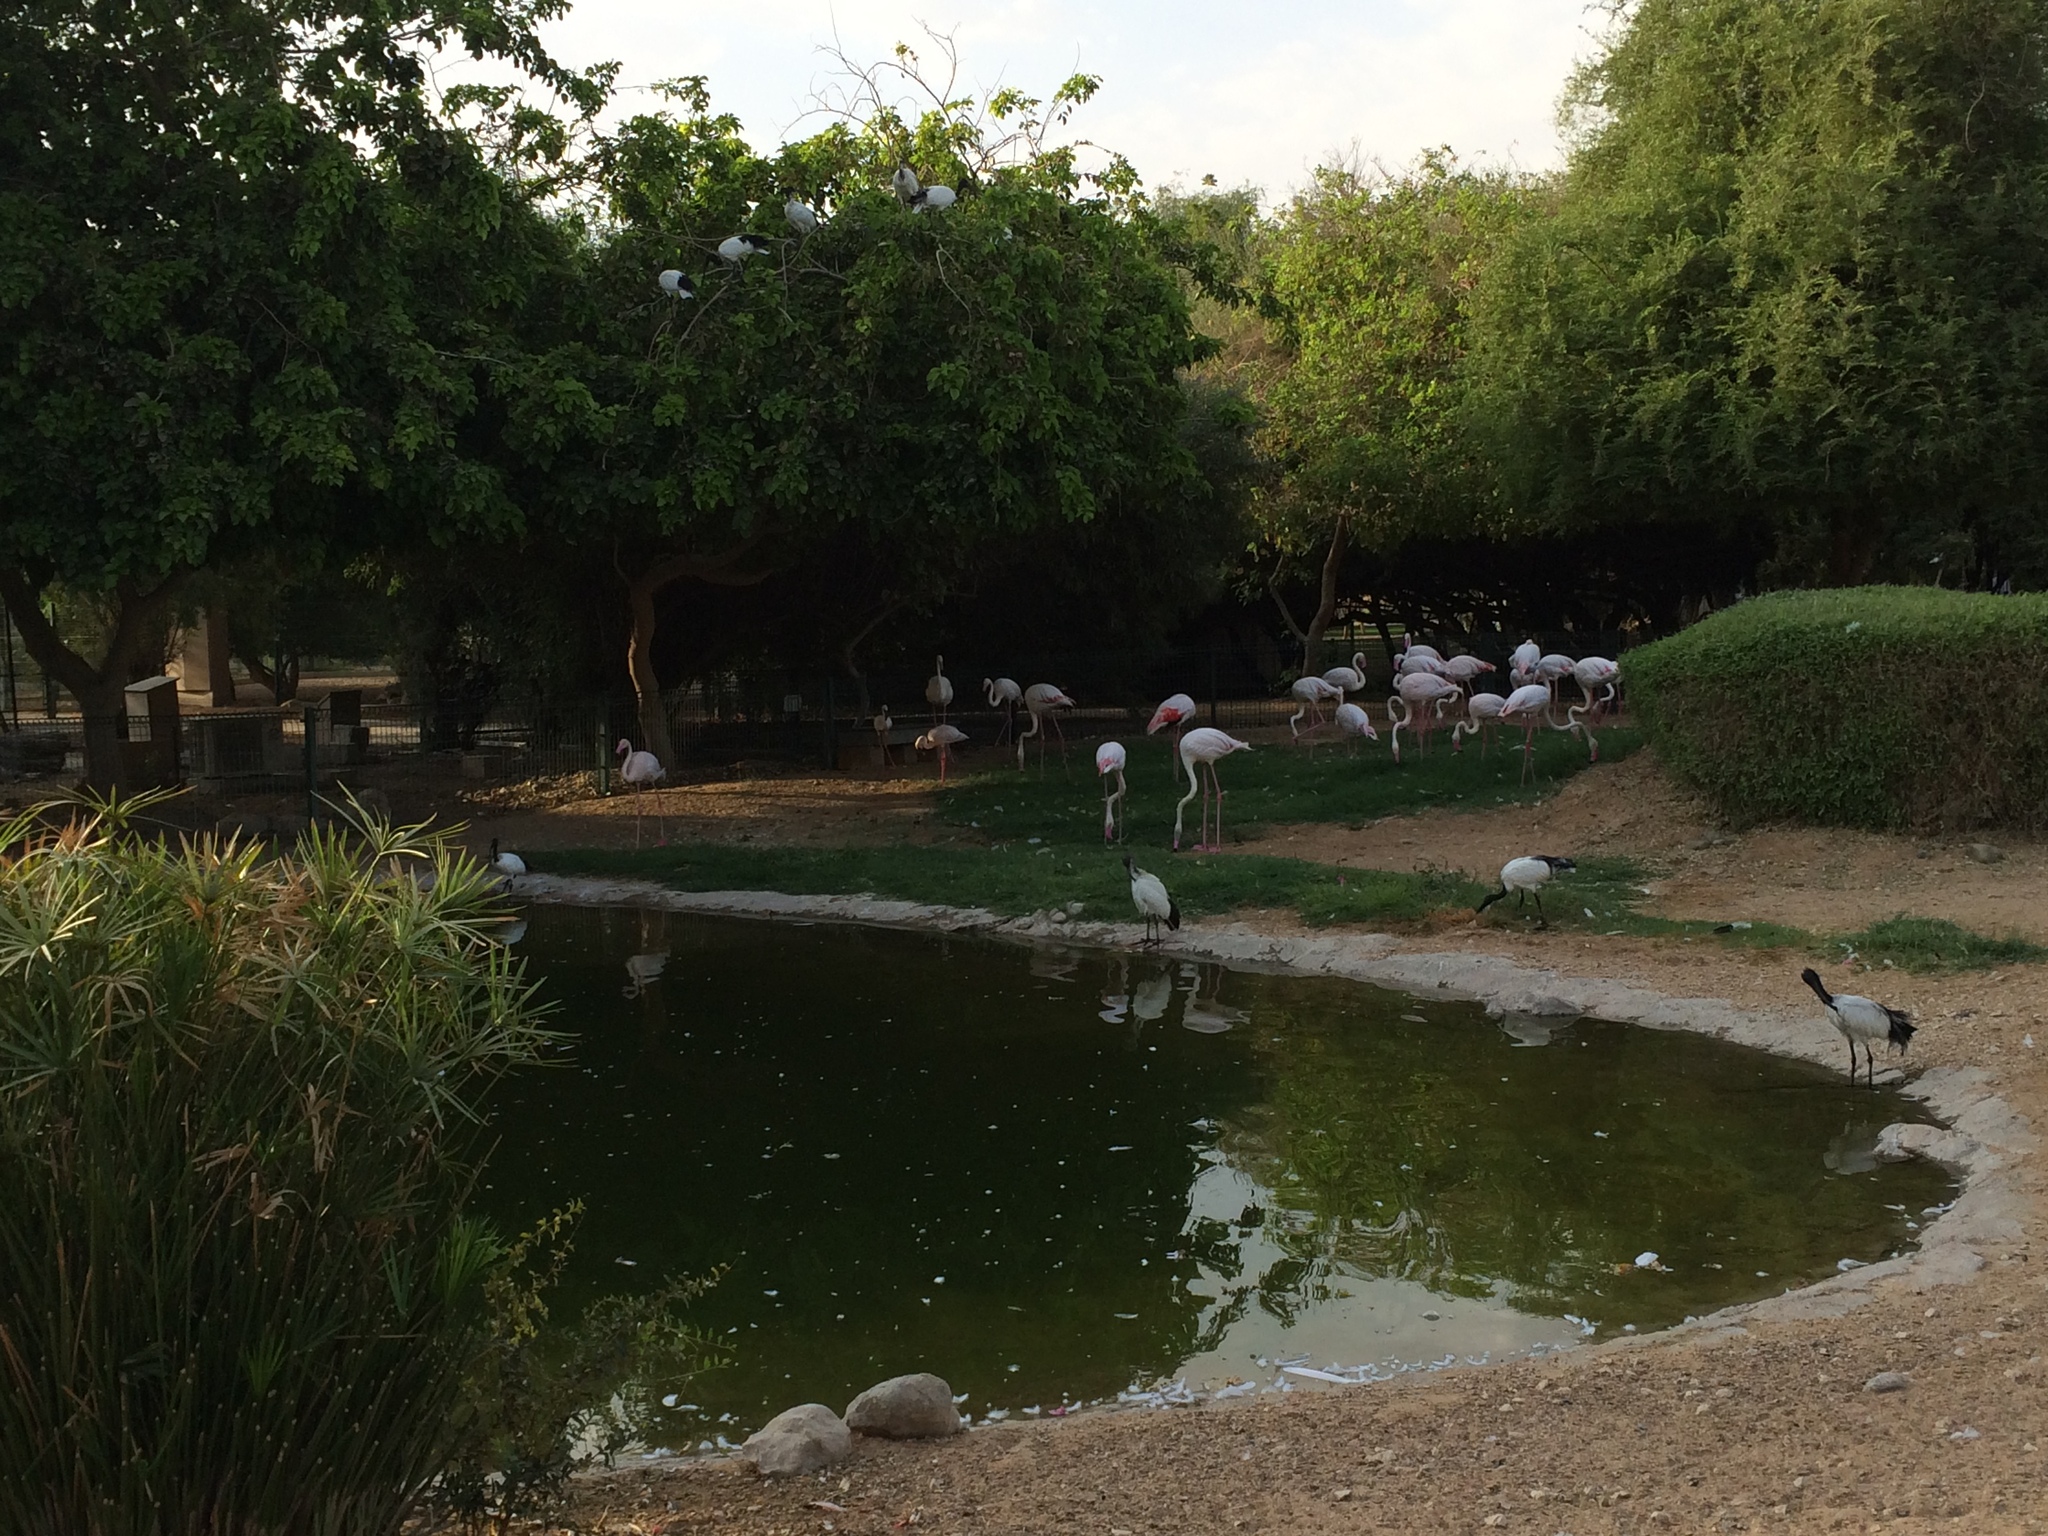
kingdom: Animalia
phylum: Chordata
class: Aves
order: Phoenicopteriformes
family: Phoenicopteridae
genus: Phoenicopterus
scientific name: Phoenicopterus roseus
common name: Greater flamingo
